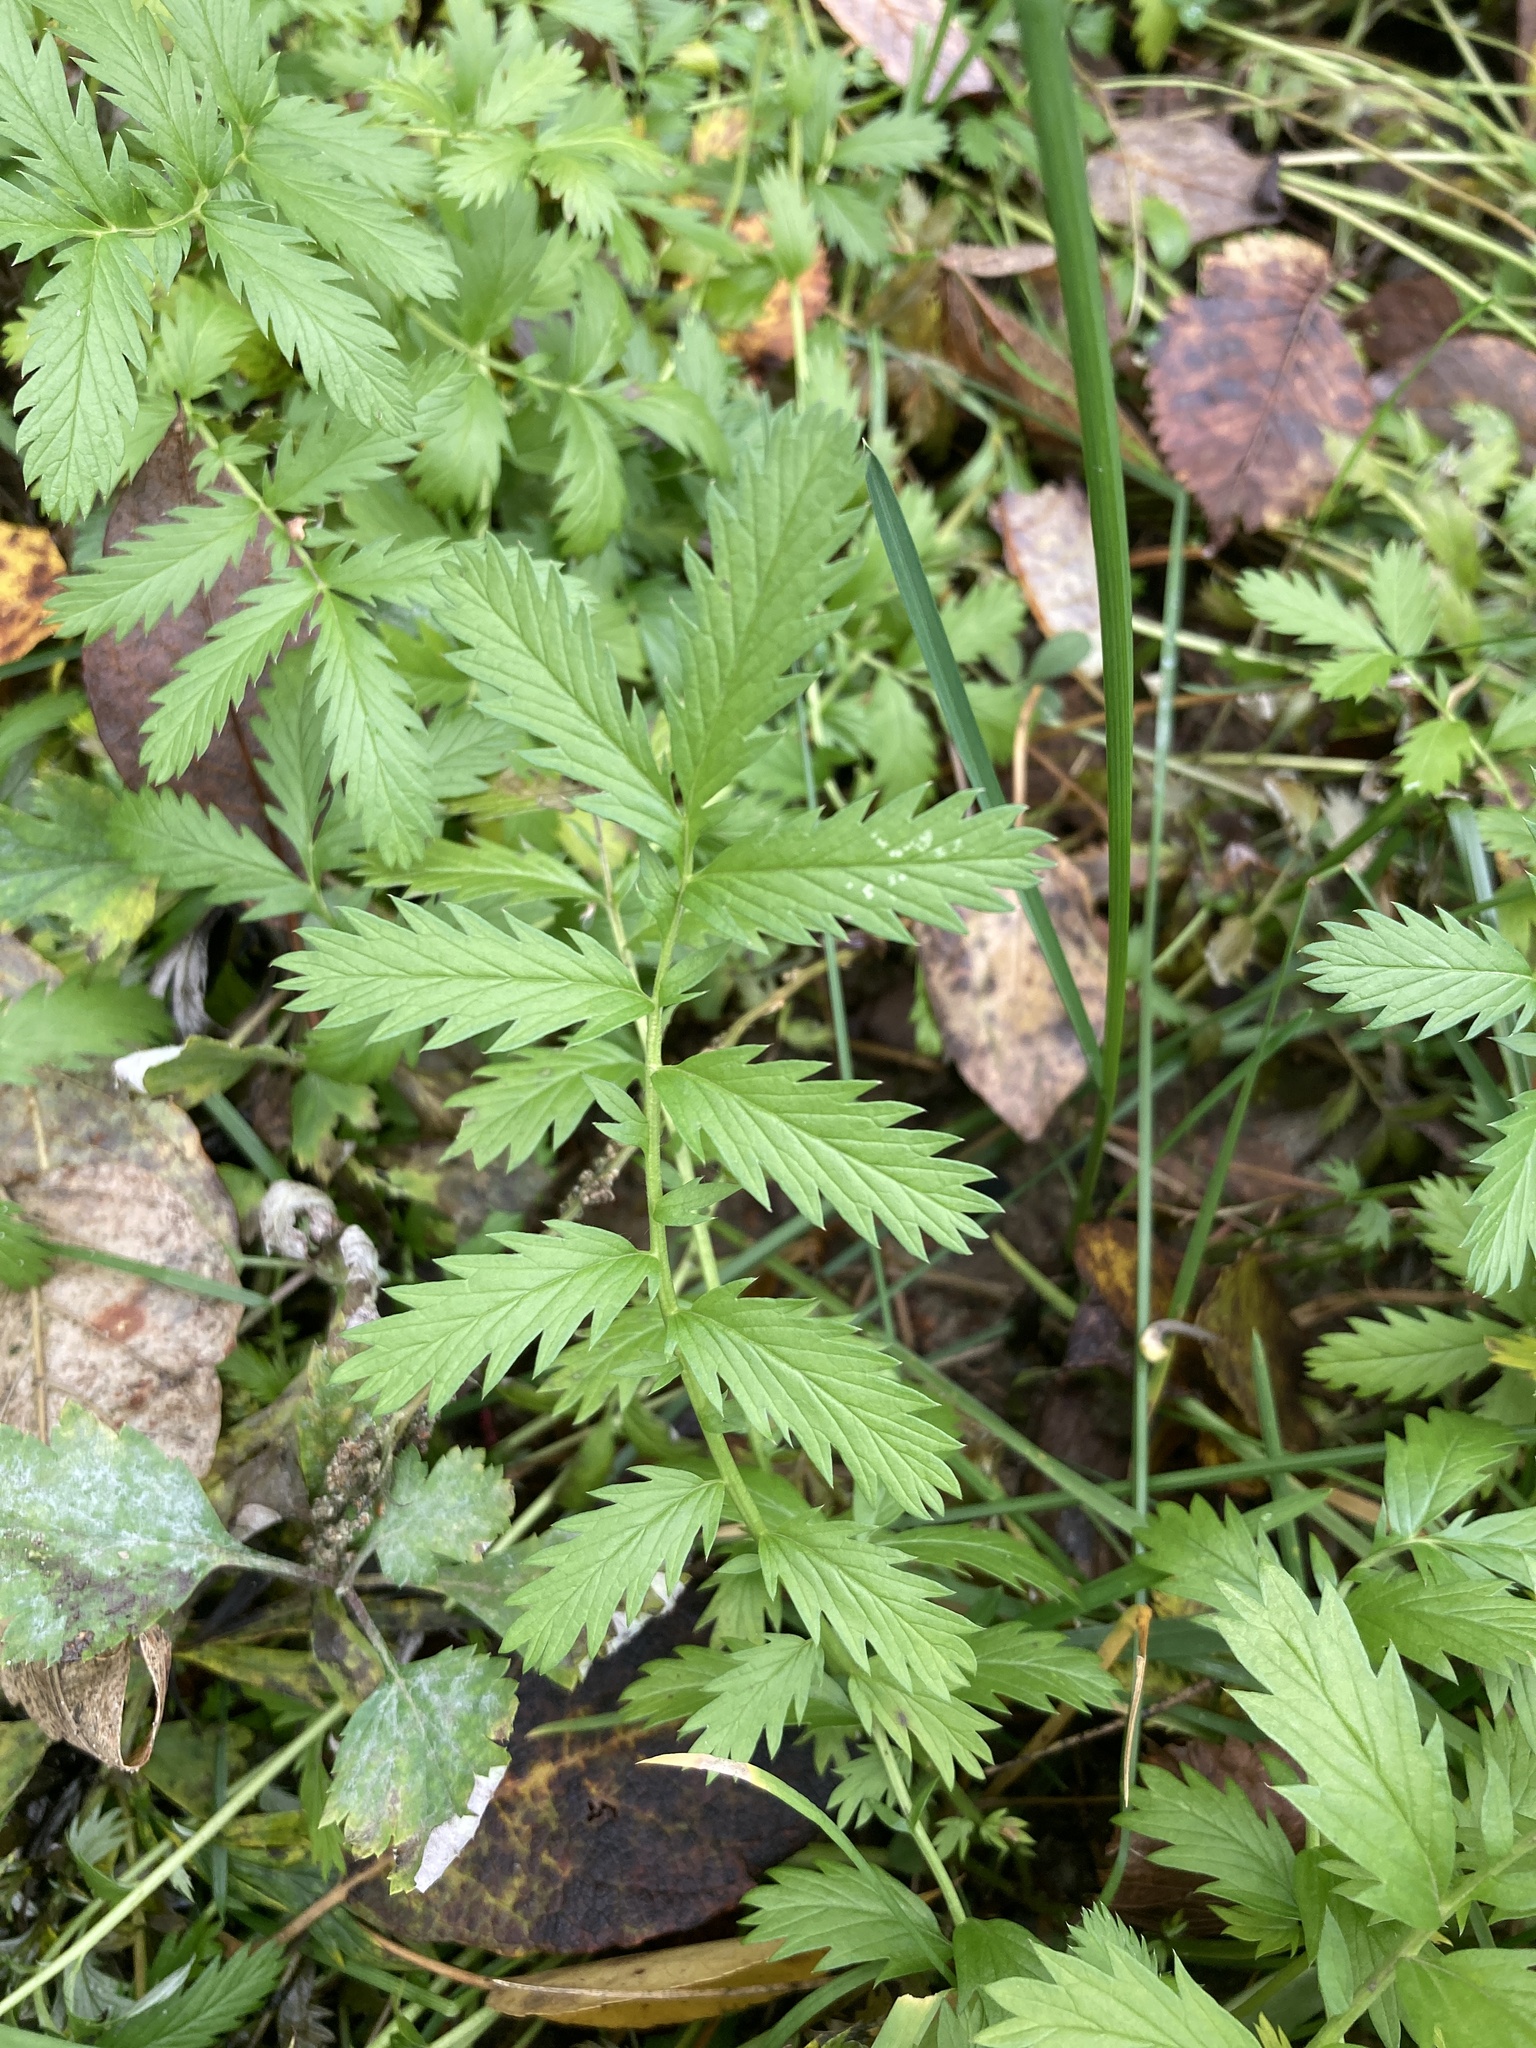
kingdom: Plantae
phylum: Tracheophyta
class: Magnoliopsida
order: Rosales
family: Rosaceae
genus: Argentina
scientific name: Argentina anserina
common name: Common silverweed
